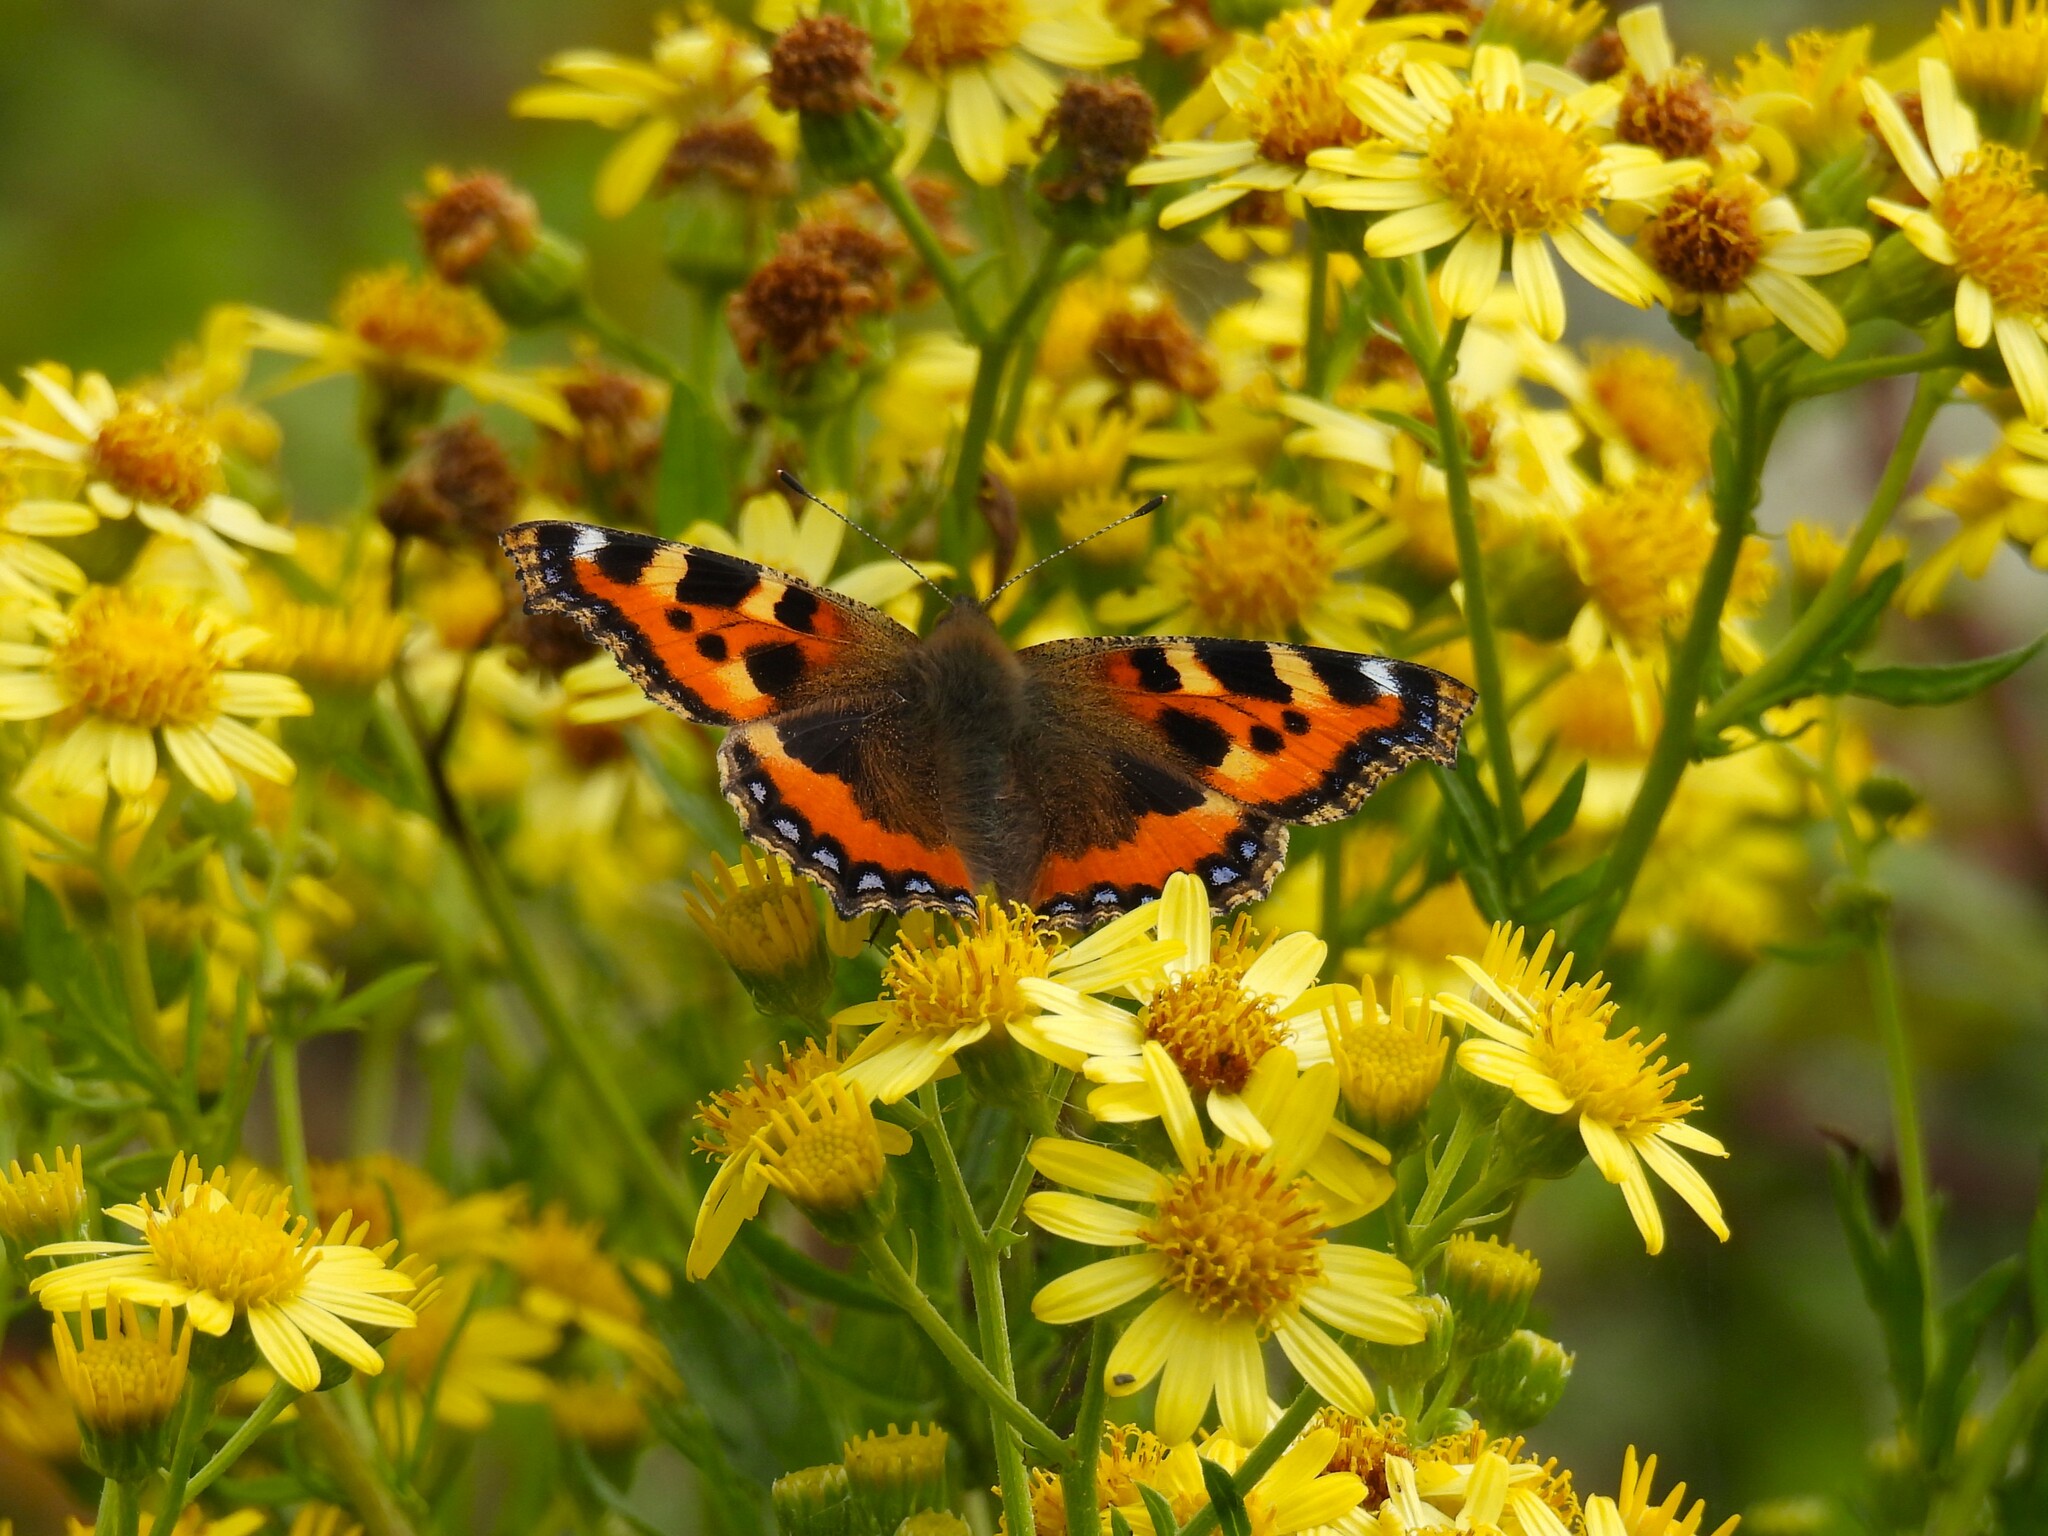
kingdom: Animalia
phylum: Arthropoda
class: Insecta
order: Lepidoptera
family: Nymphalidae
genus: Aglais
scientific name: Aglais urticae
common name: Small tortoiseshell
